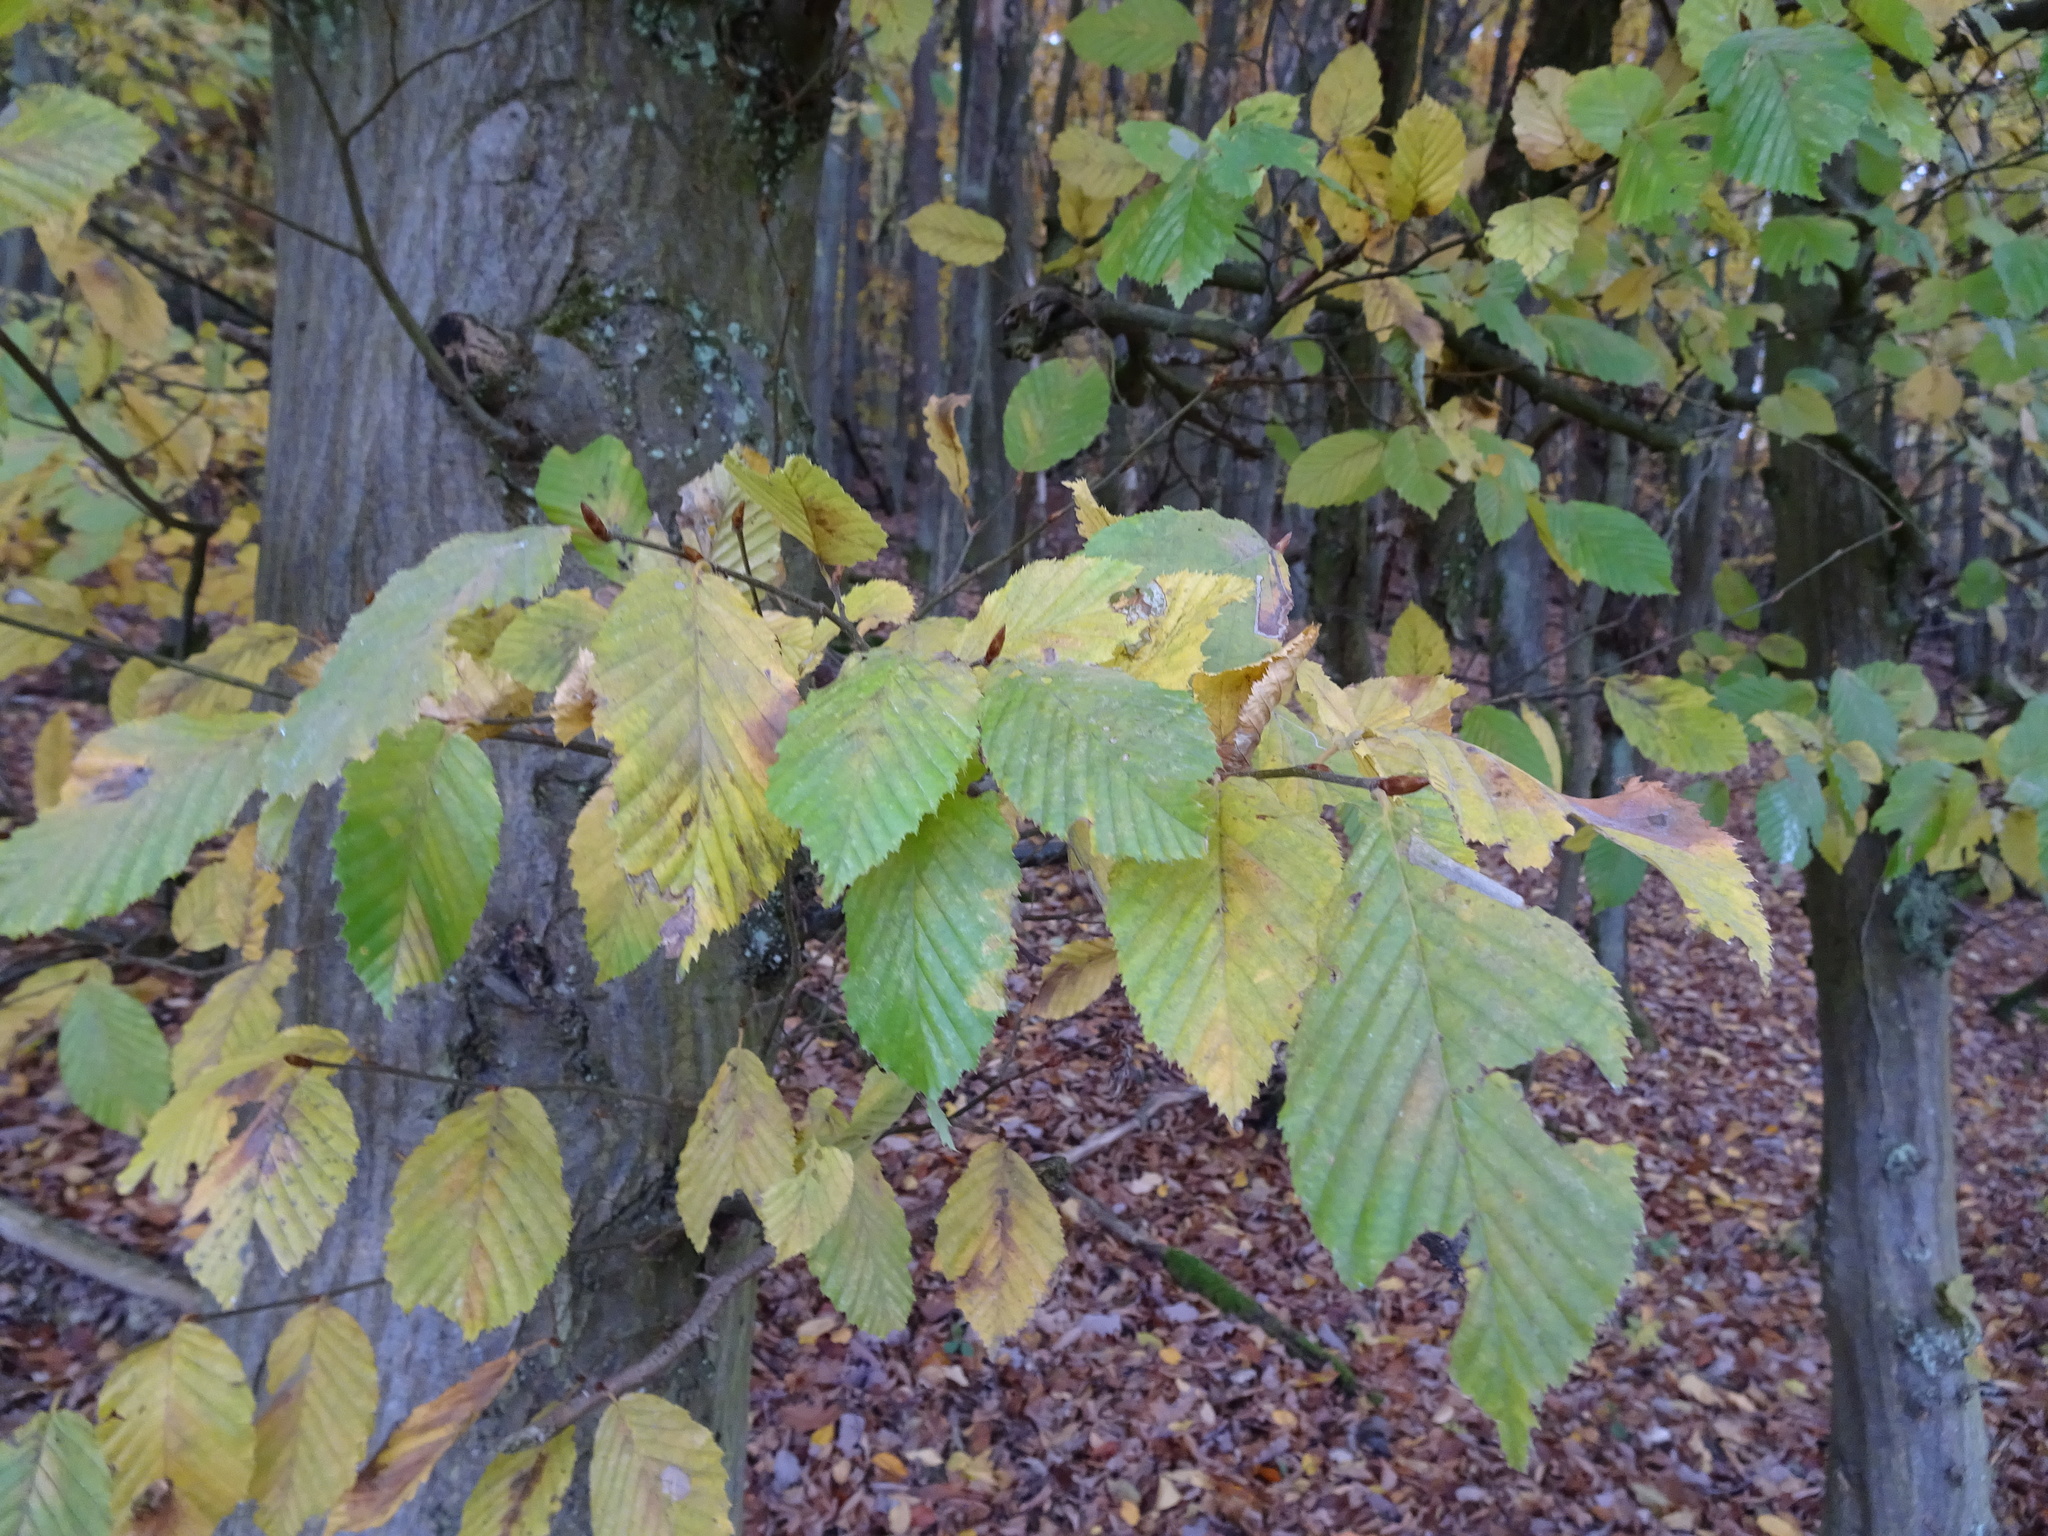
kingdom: Plantae
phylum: Tracheophyta
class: Magnoliopsida
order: Fagales
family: Betulaceae
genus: Carpinus
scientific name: Carpinus betulus
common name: Hornbeam
